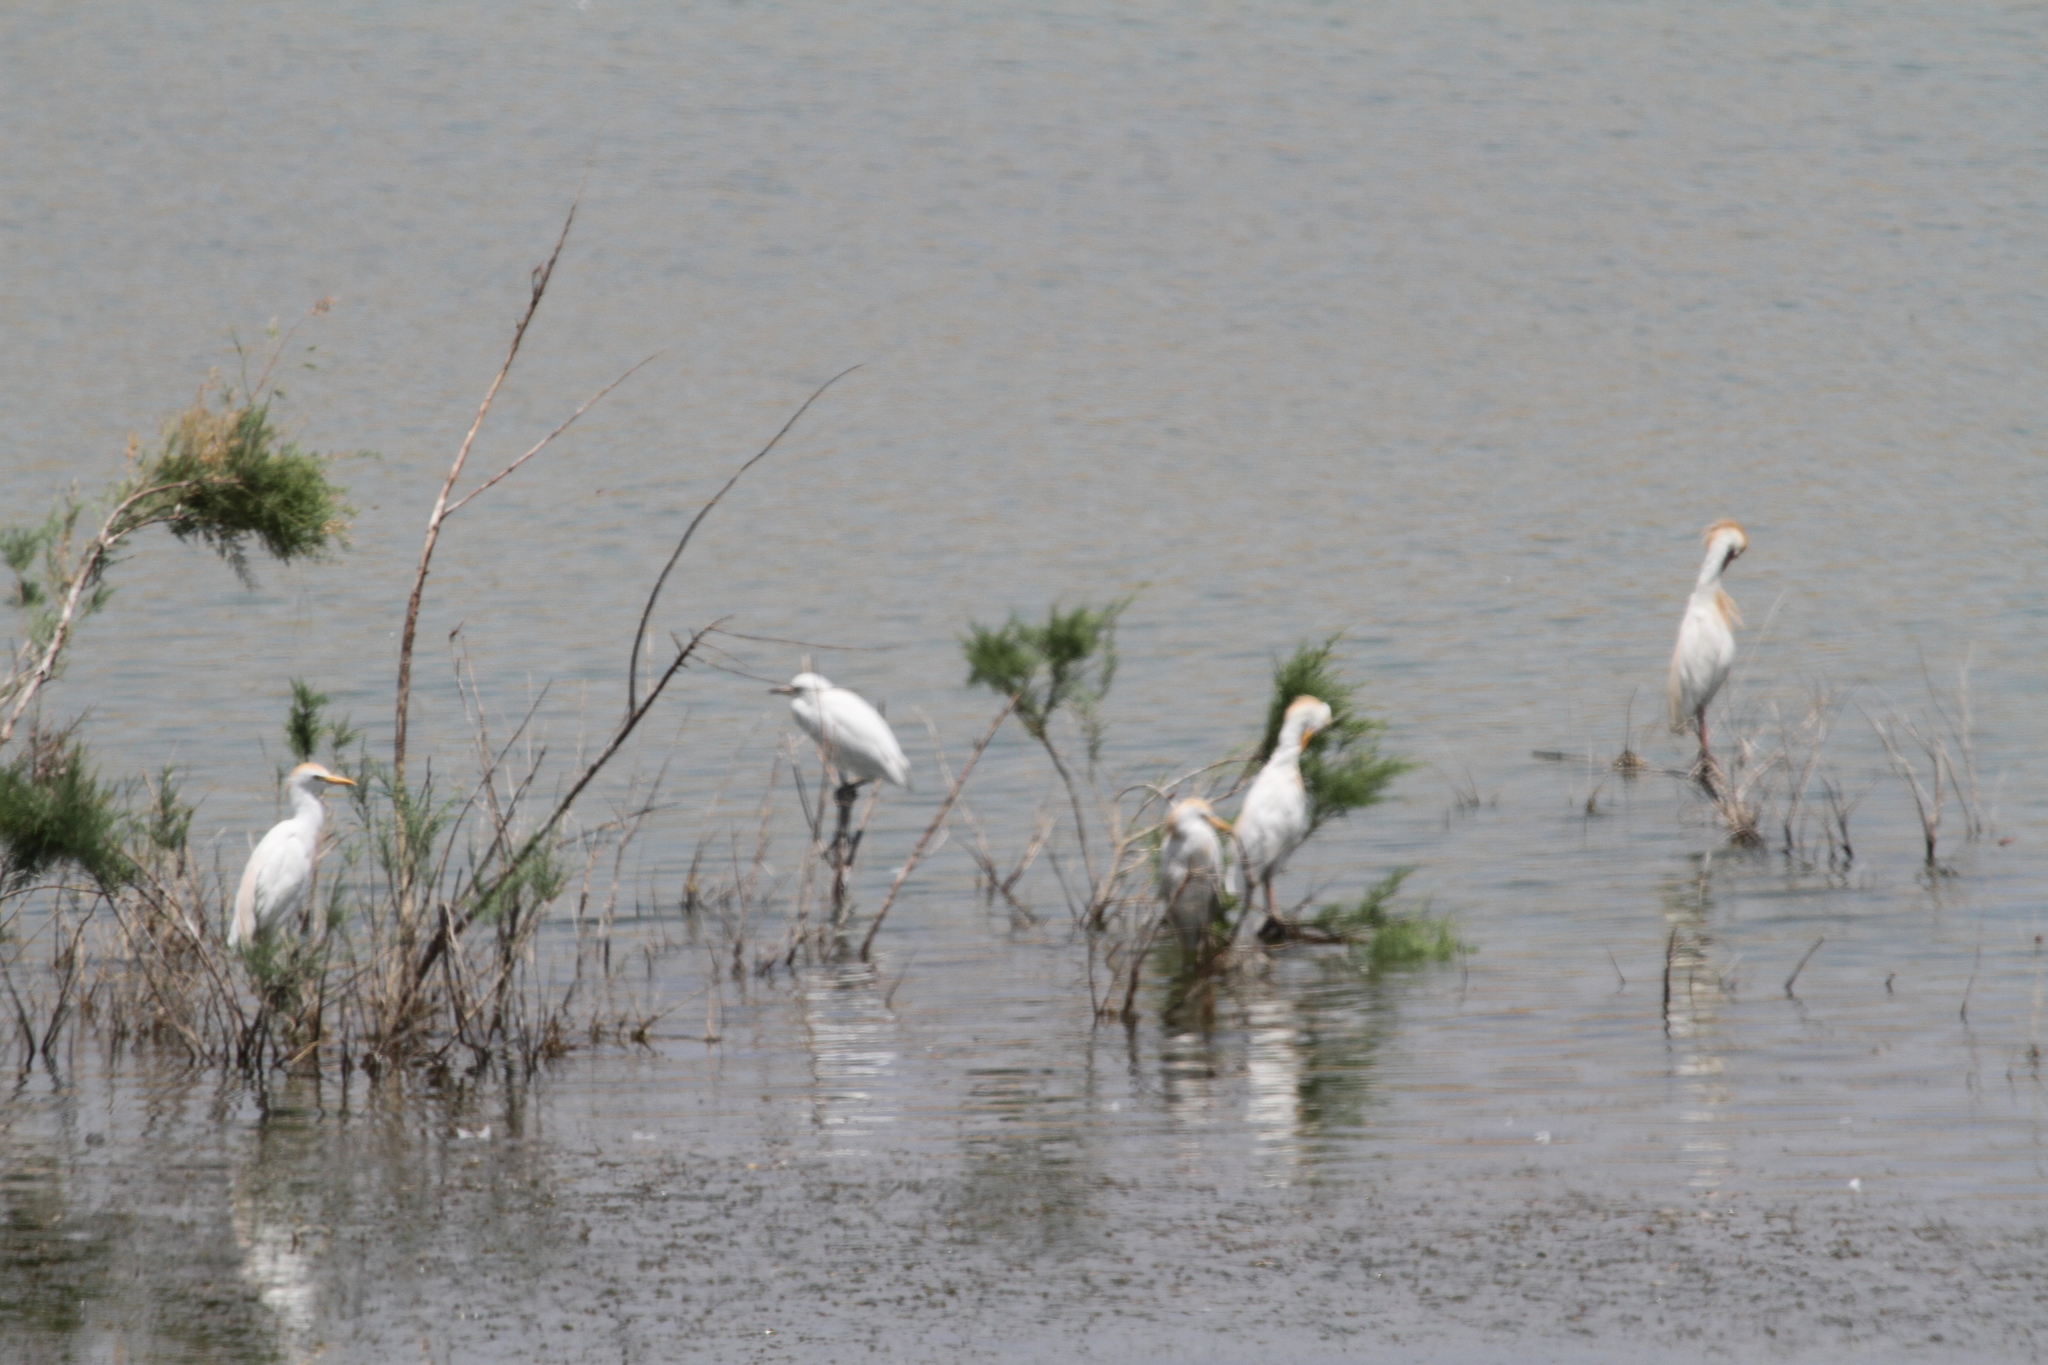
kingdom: Animalia
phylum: Chordata
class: Aves
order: Pelecaniformes
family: Ardeidae
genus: Bubulcus
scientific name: Bubulcus ibis
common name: Cattle egret
